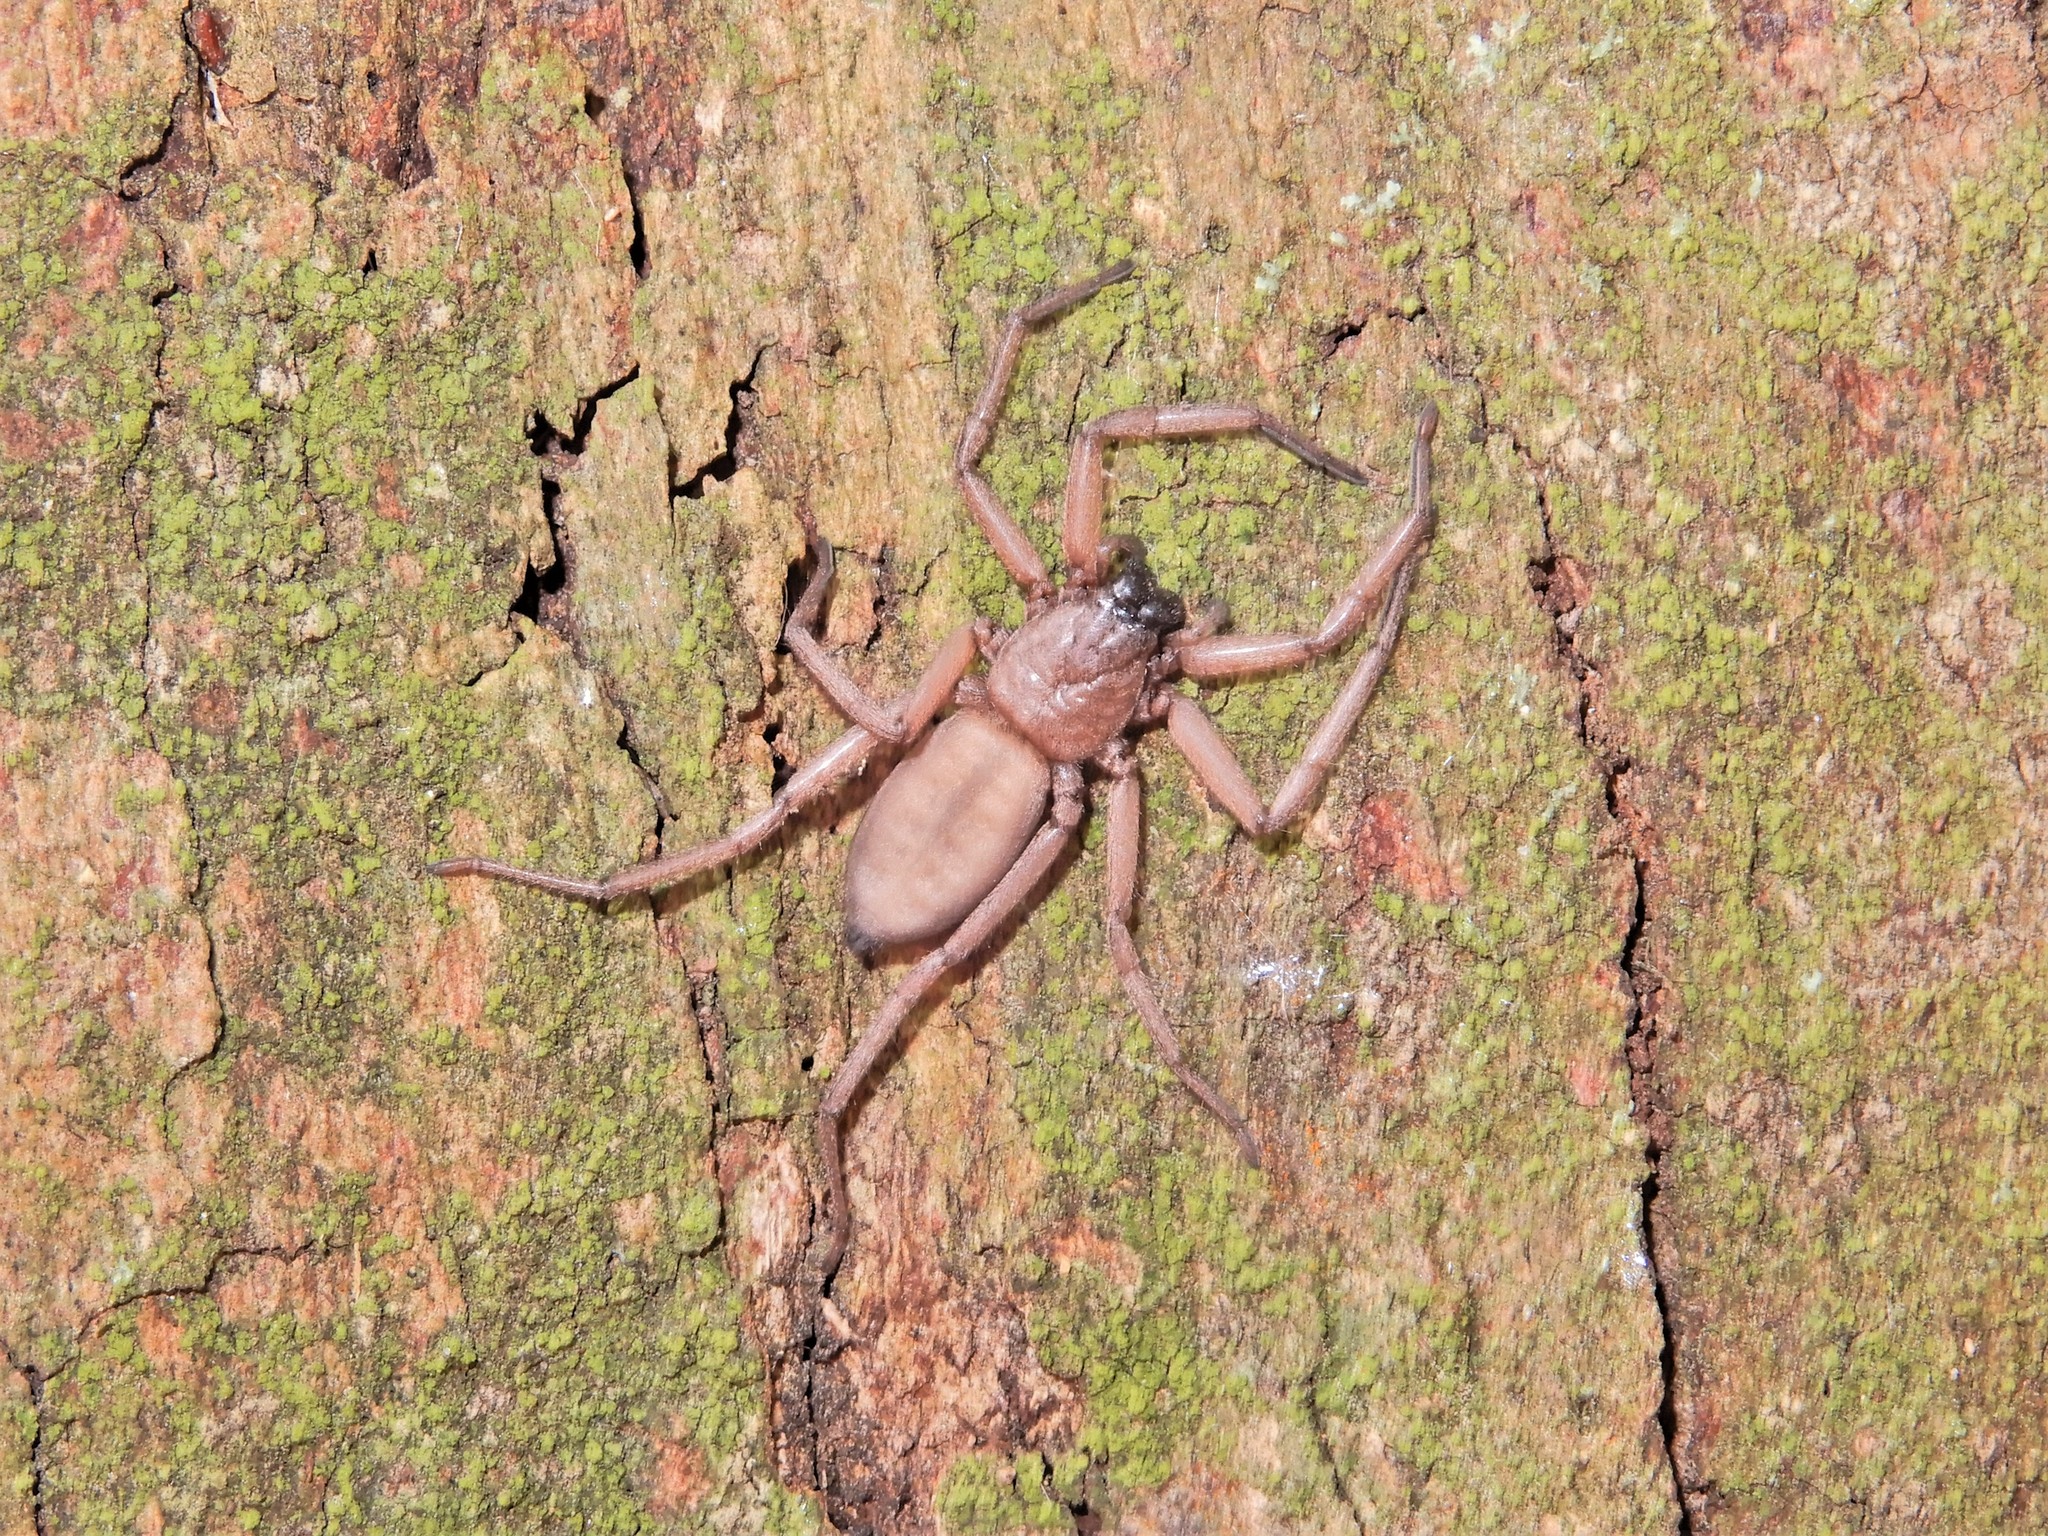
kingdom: Animalia
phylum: Arthropoda
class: Arachnida
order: Araneae
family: Trochanteriidae
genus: Hemicloea
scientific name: Hemicloea rogenhoferi
